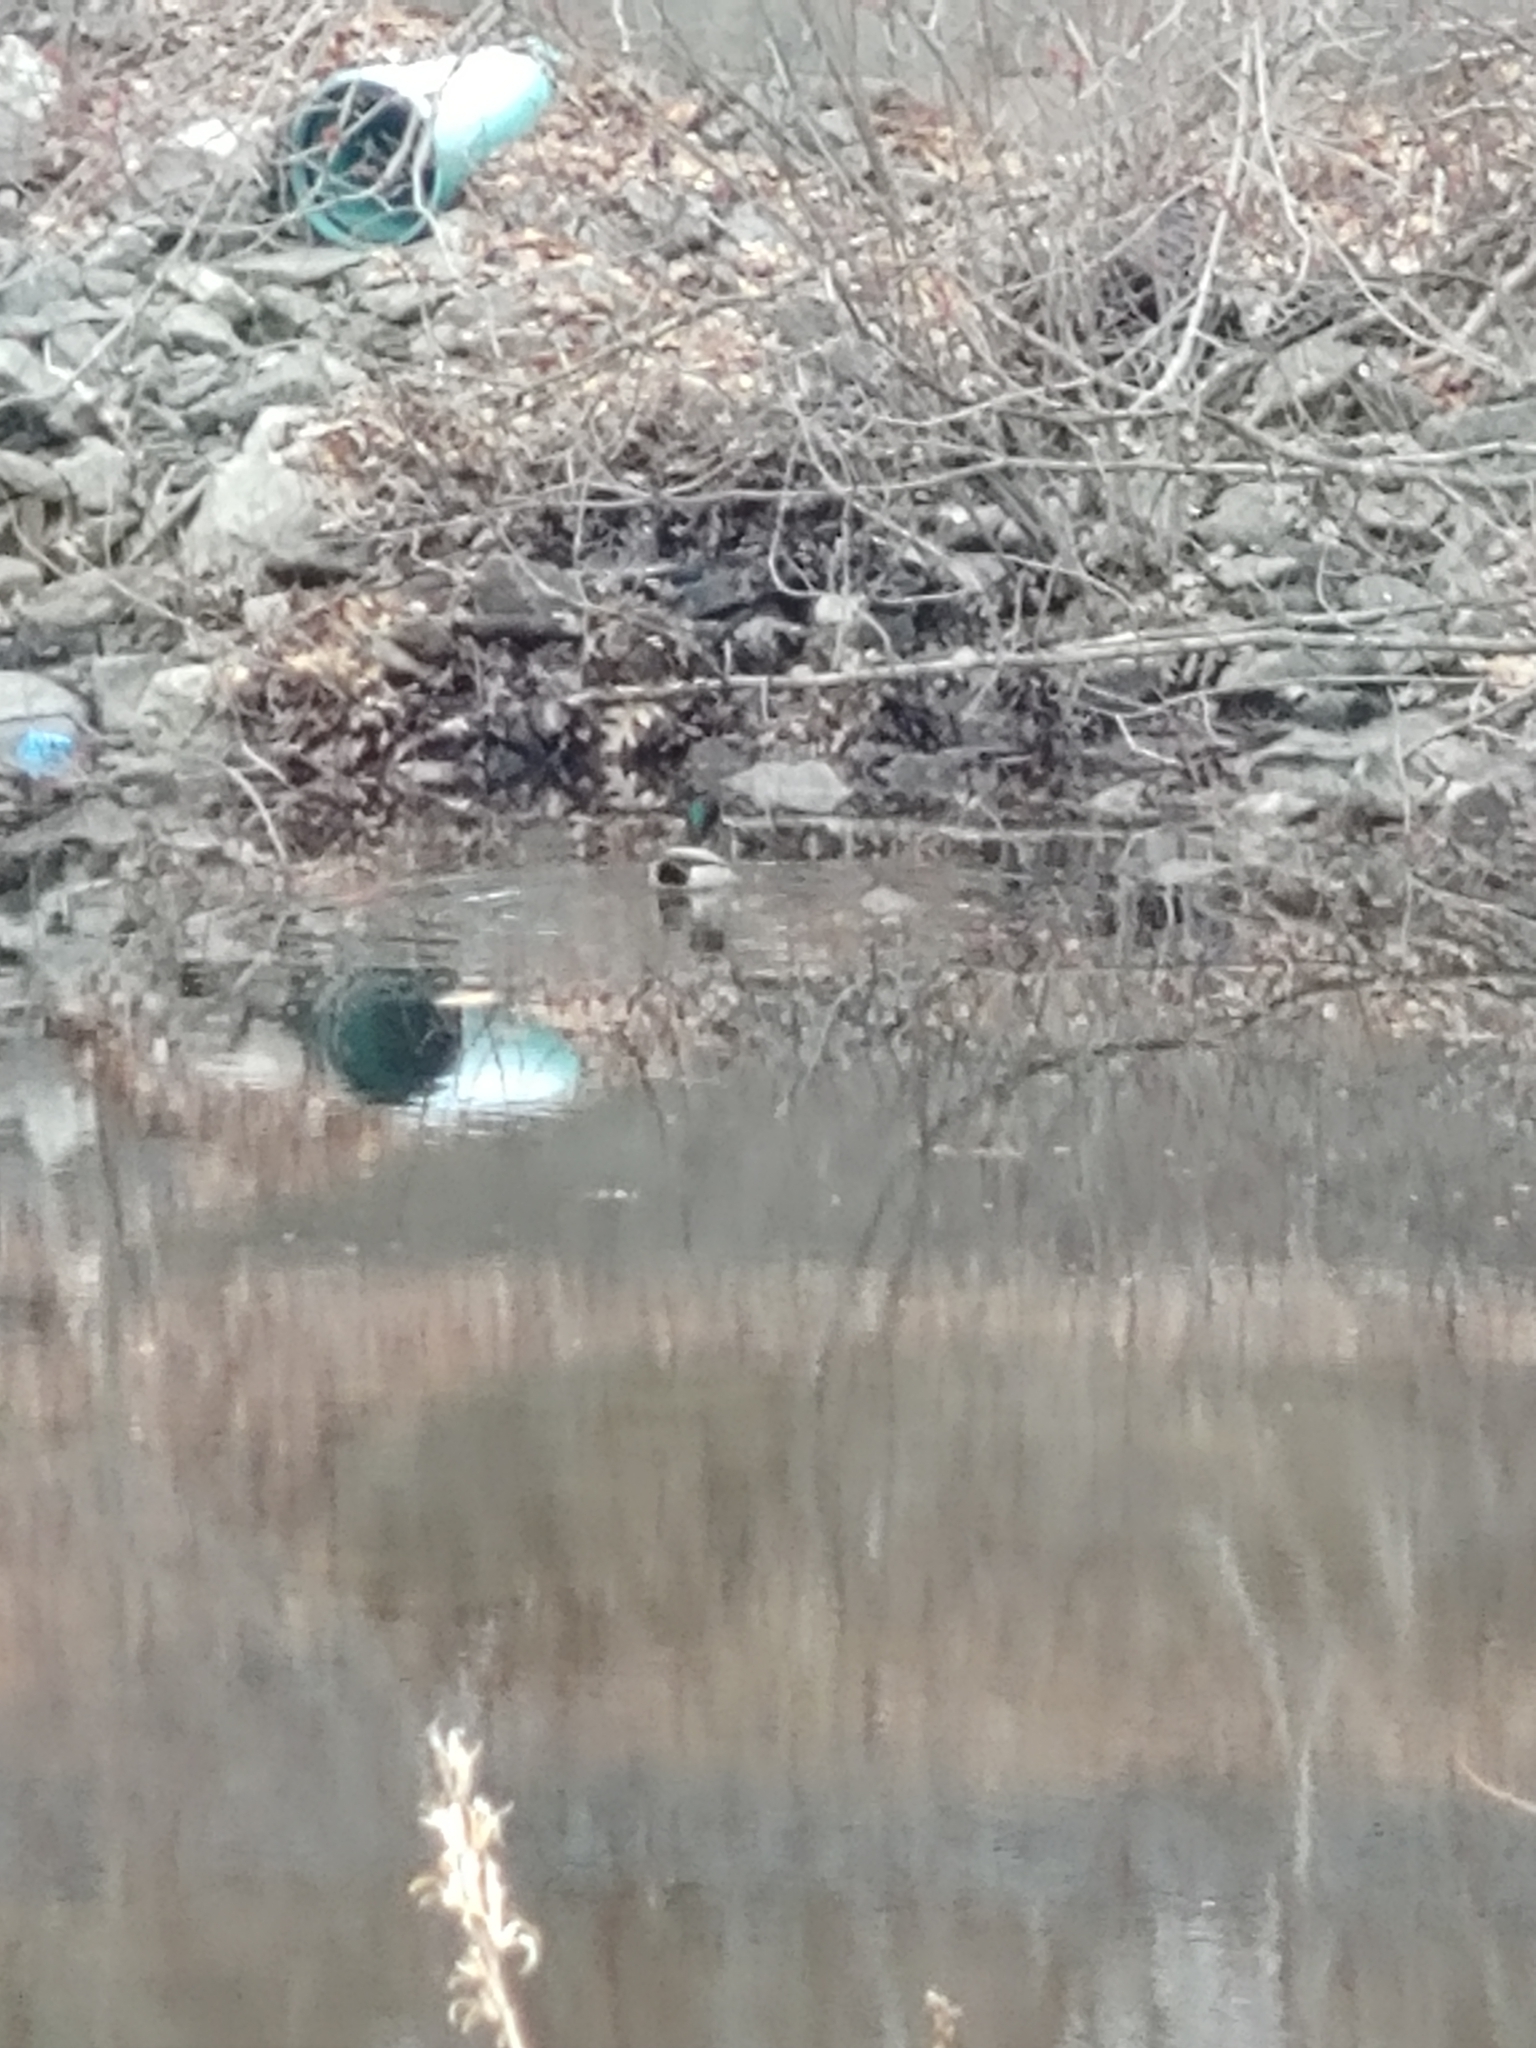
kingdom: Animalia
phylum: Chordata
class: Aves
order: Anseriformes
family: Anatidae
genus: Anas
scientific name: Anas platyrhynchos
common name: Mallard
